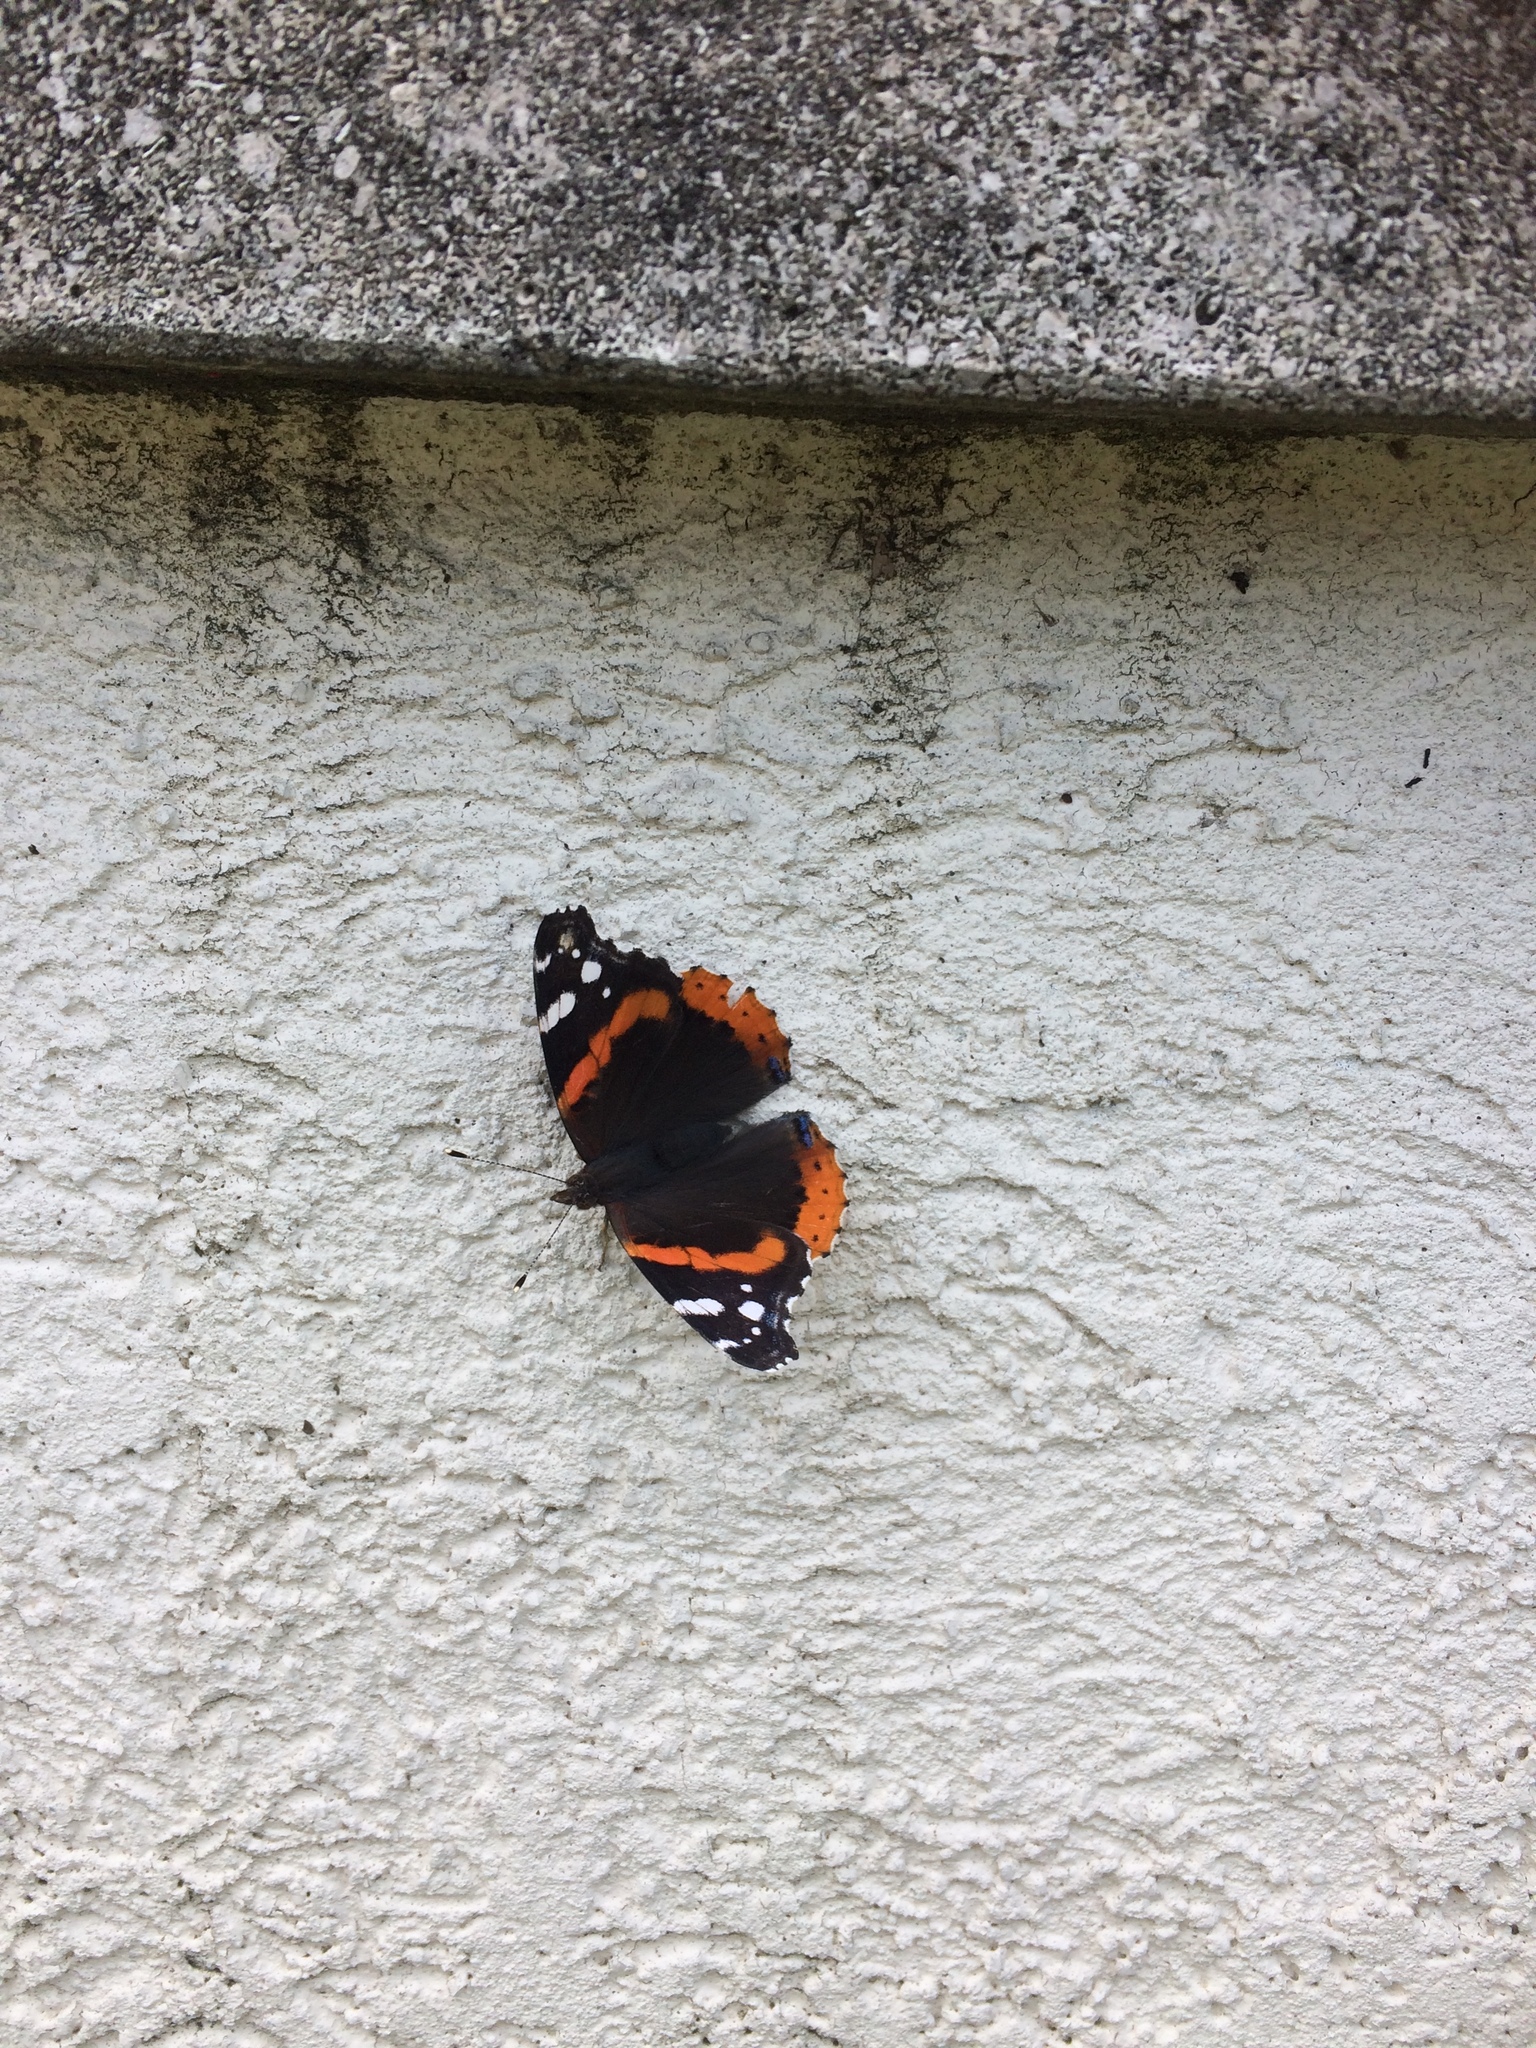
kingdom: Animalia
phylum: Arthropoda
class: Insecta
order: Lepidoptera
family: Nymphalidae
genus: Vanessa
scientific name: Vanessa atalanta
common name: Red admiral
